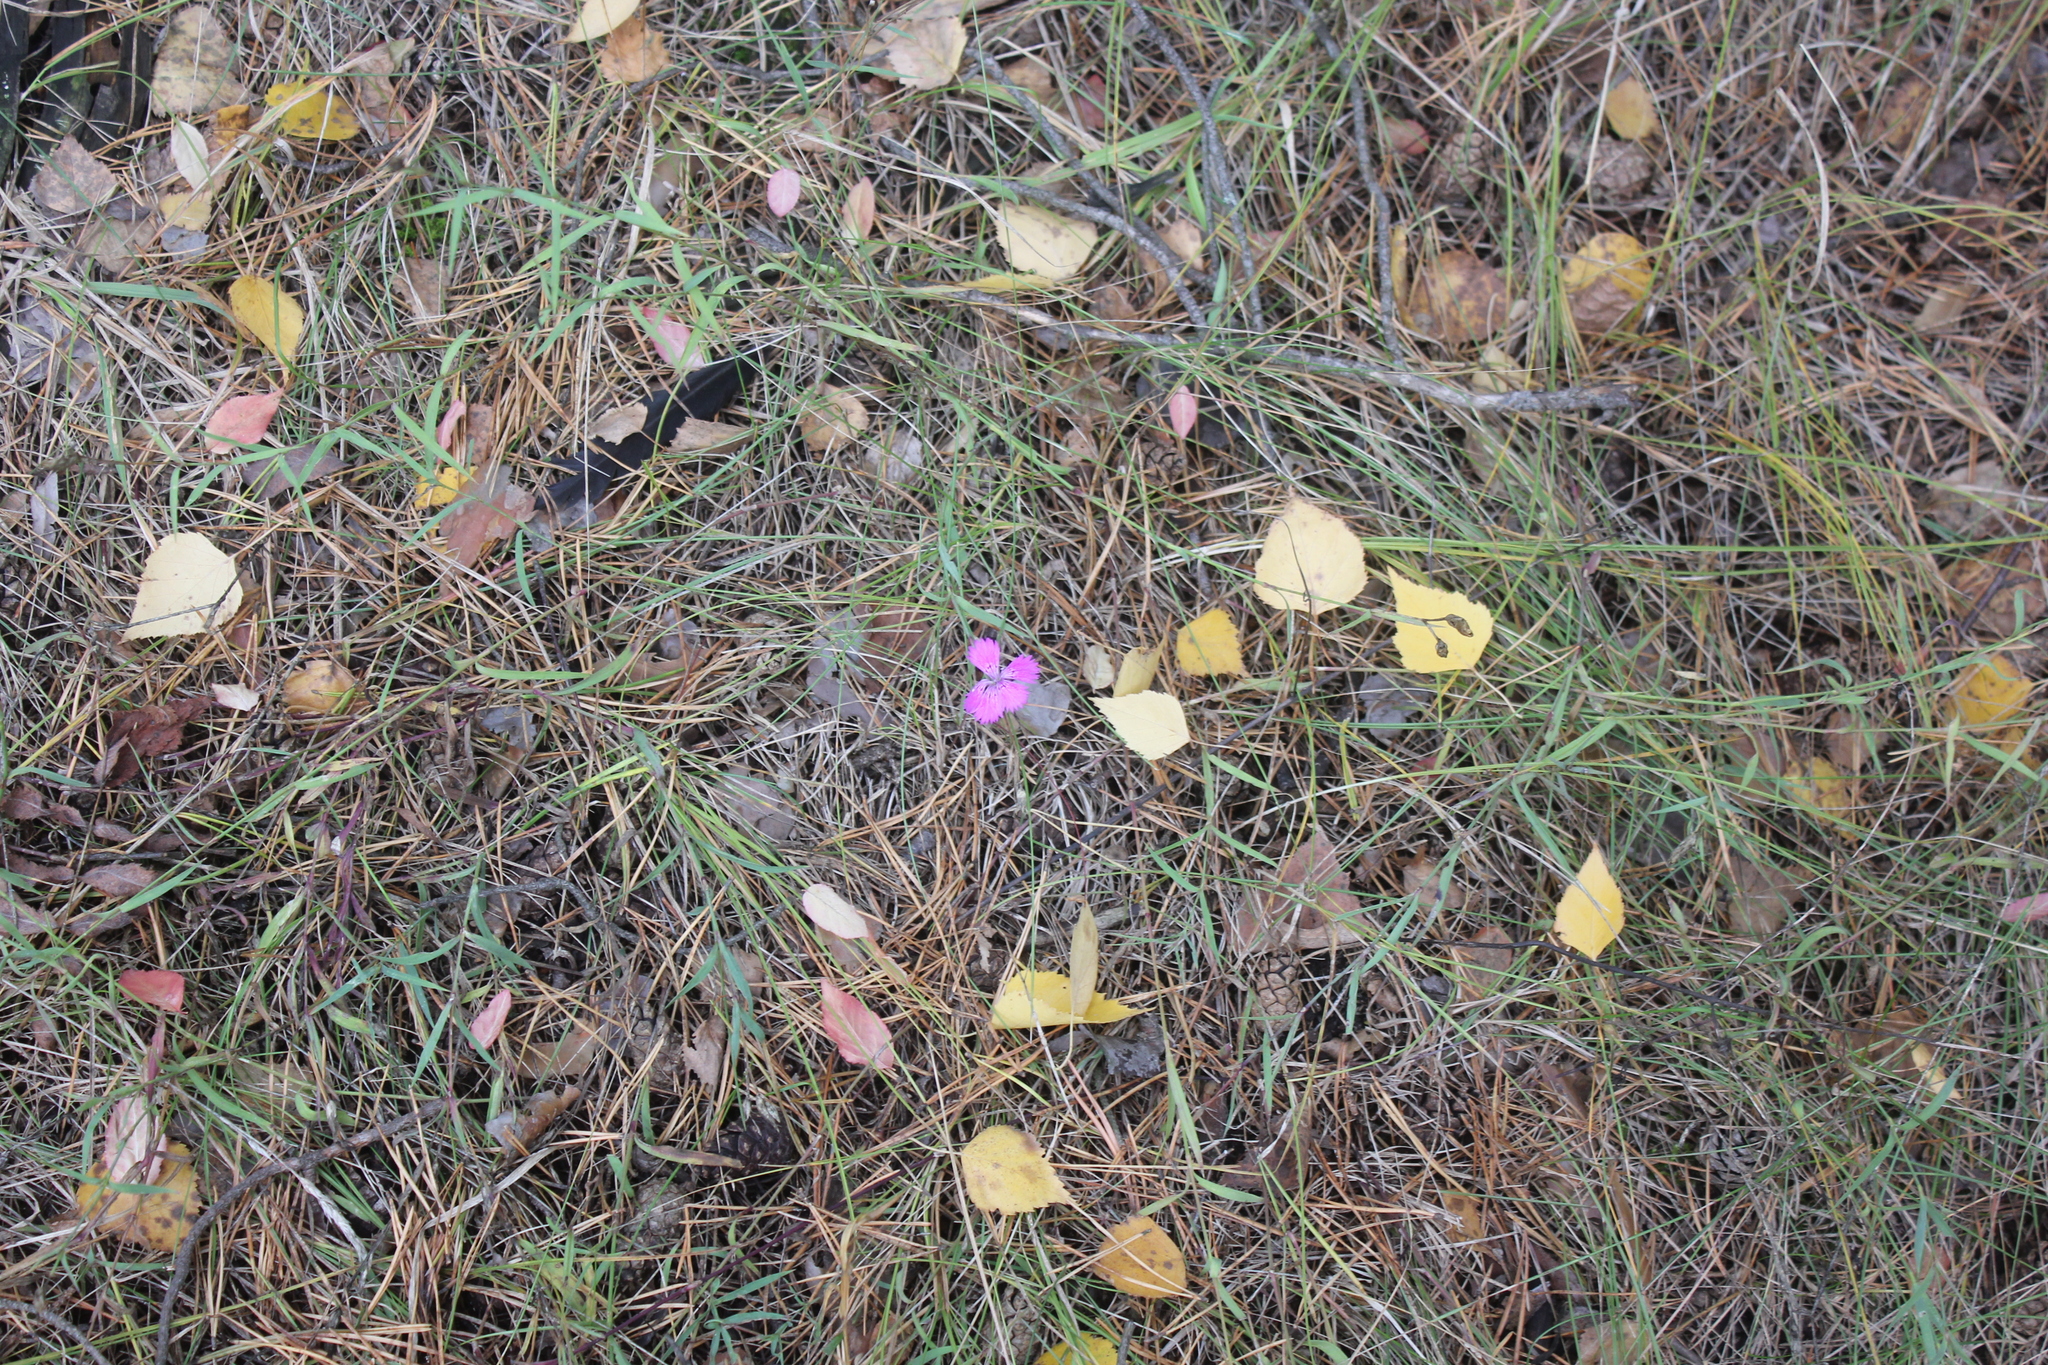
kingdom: Plantae
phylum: Tracheophyta
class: Magnoliopsida
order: Caryophyllales
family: Caryophyllaceae
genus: Dianthus
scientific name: Dianthus chinensis
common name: Rainbow pink
